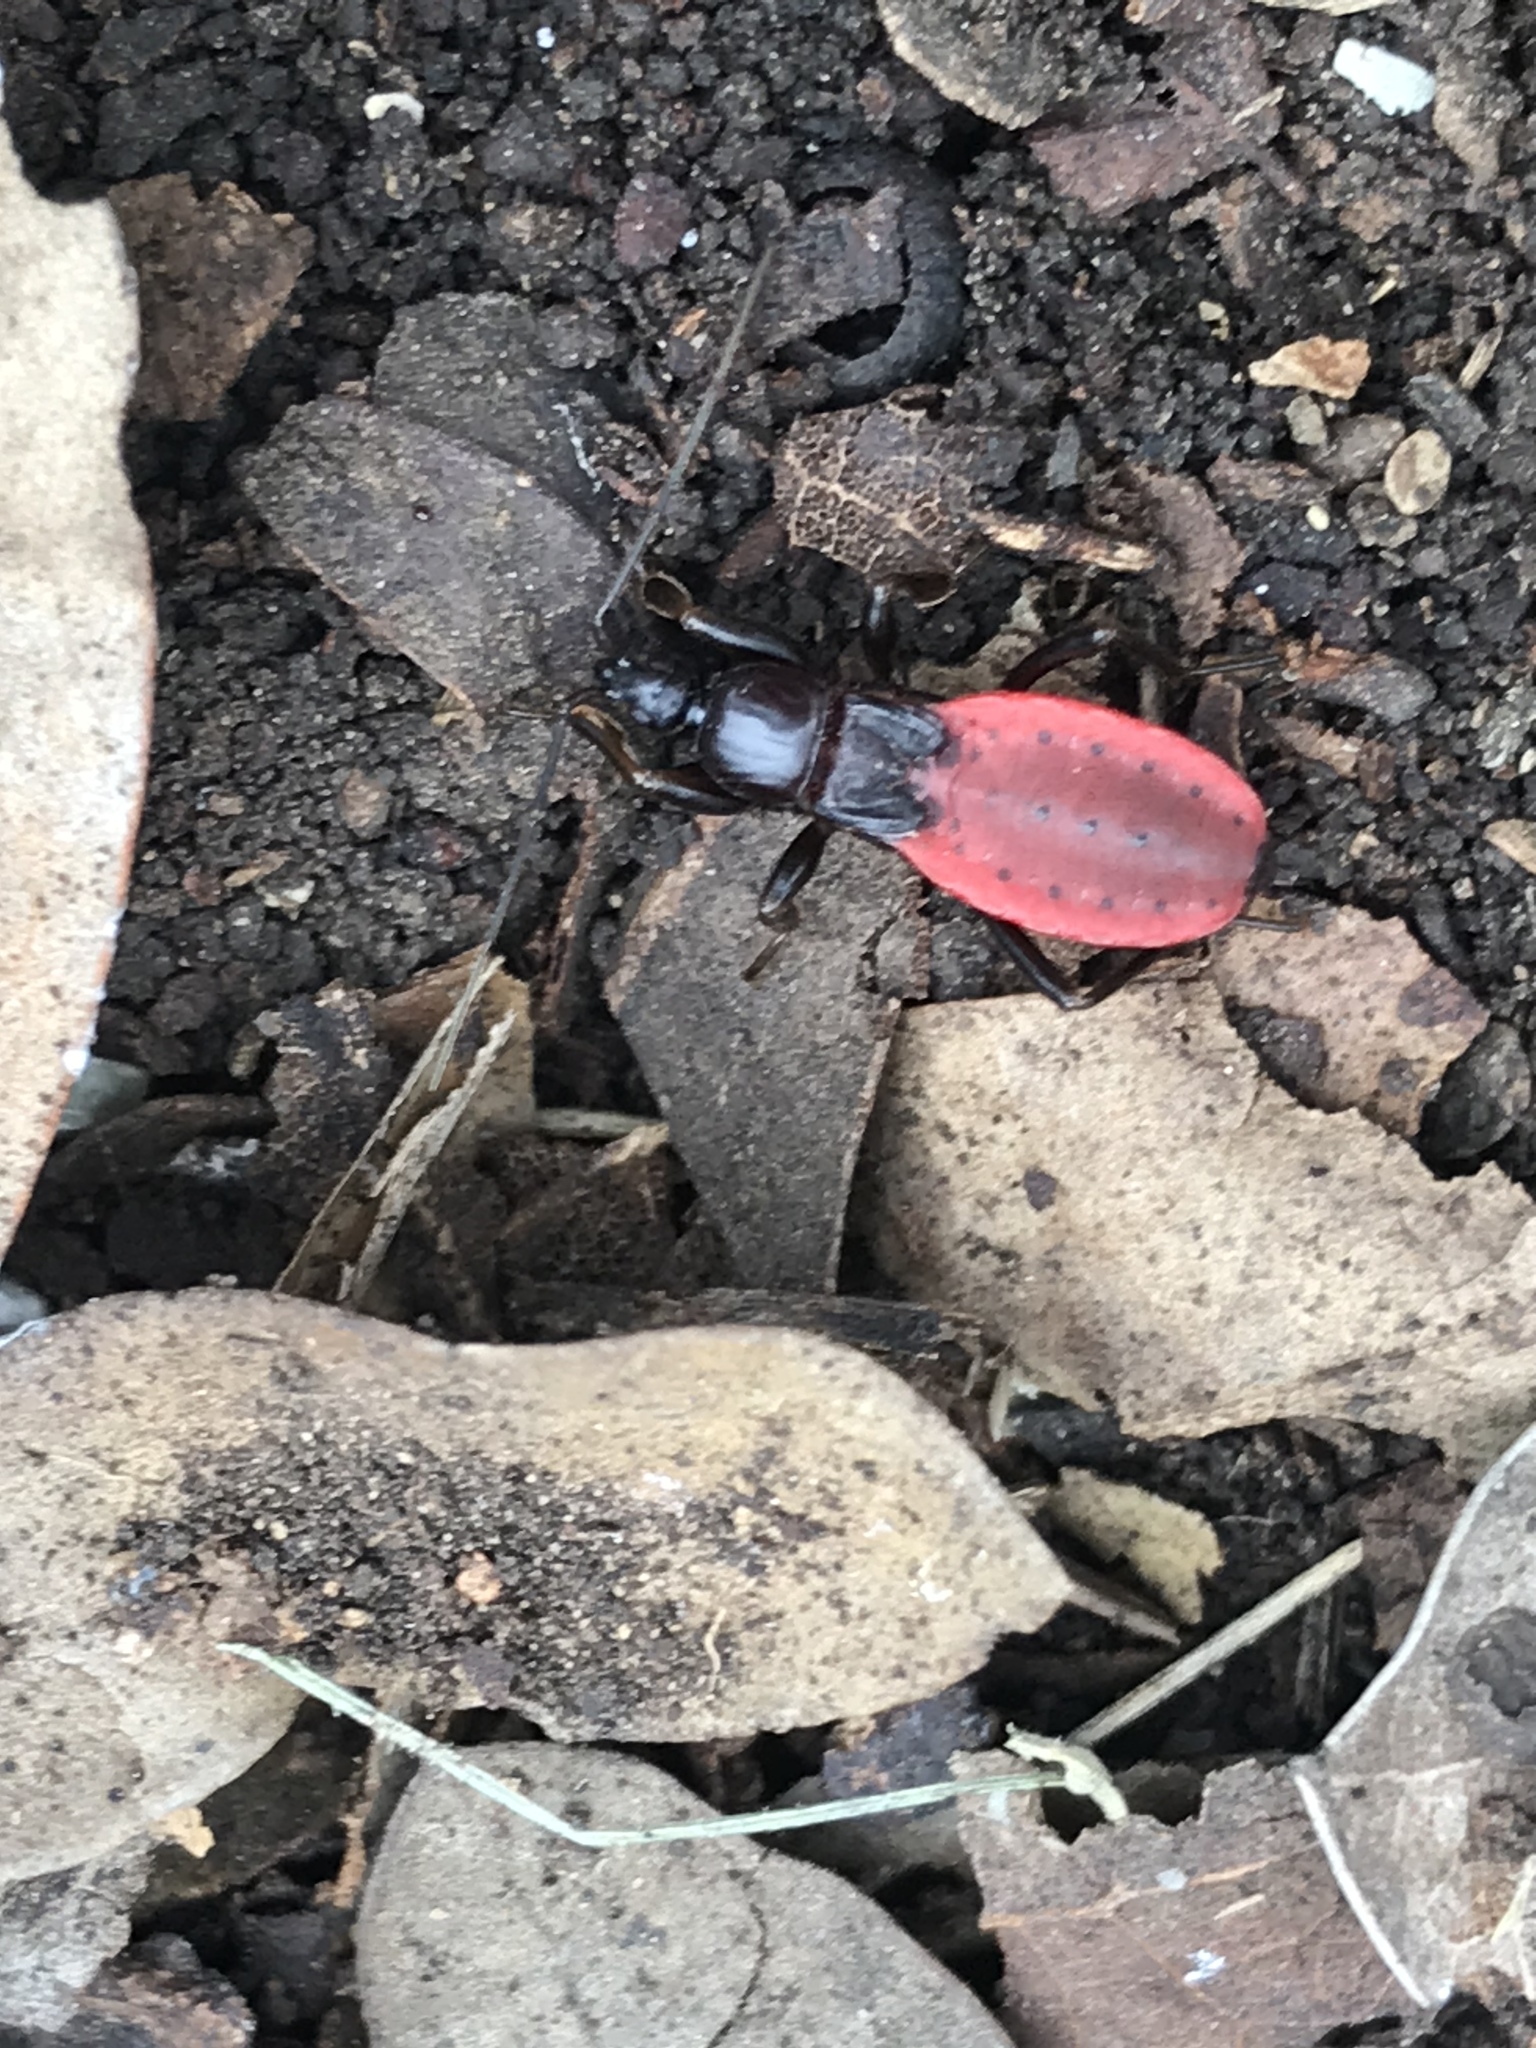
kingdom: Animalia
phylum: Arthropoda
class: Insecta
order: Hemiptera
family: Reduviidae
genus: Melanolestes
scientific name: Melanolestes picipes
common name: Assassin bug
